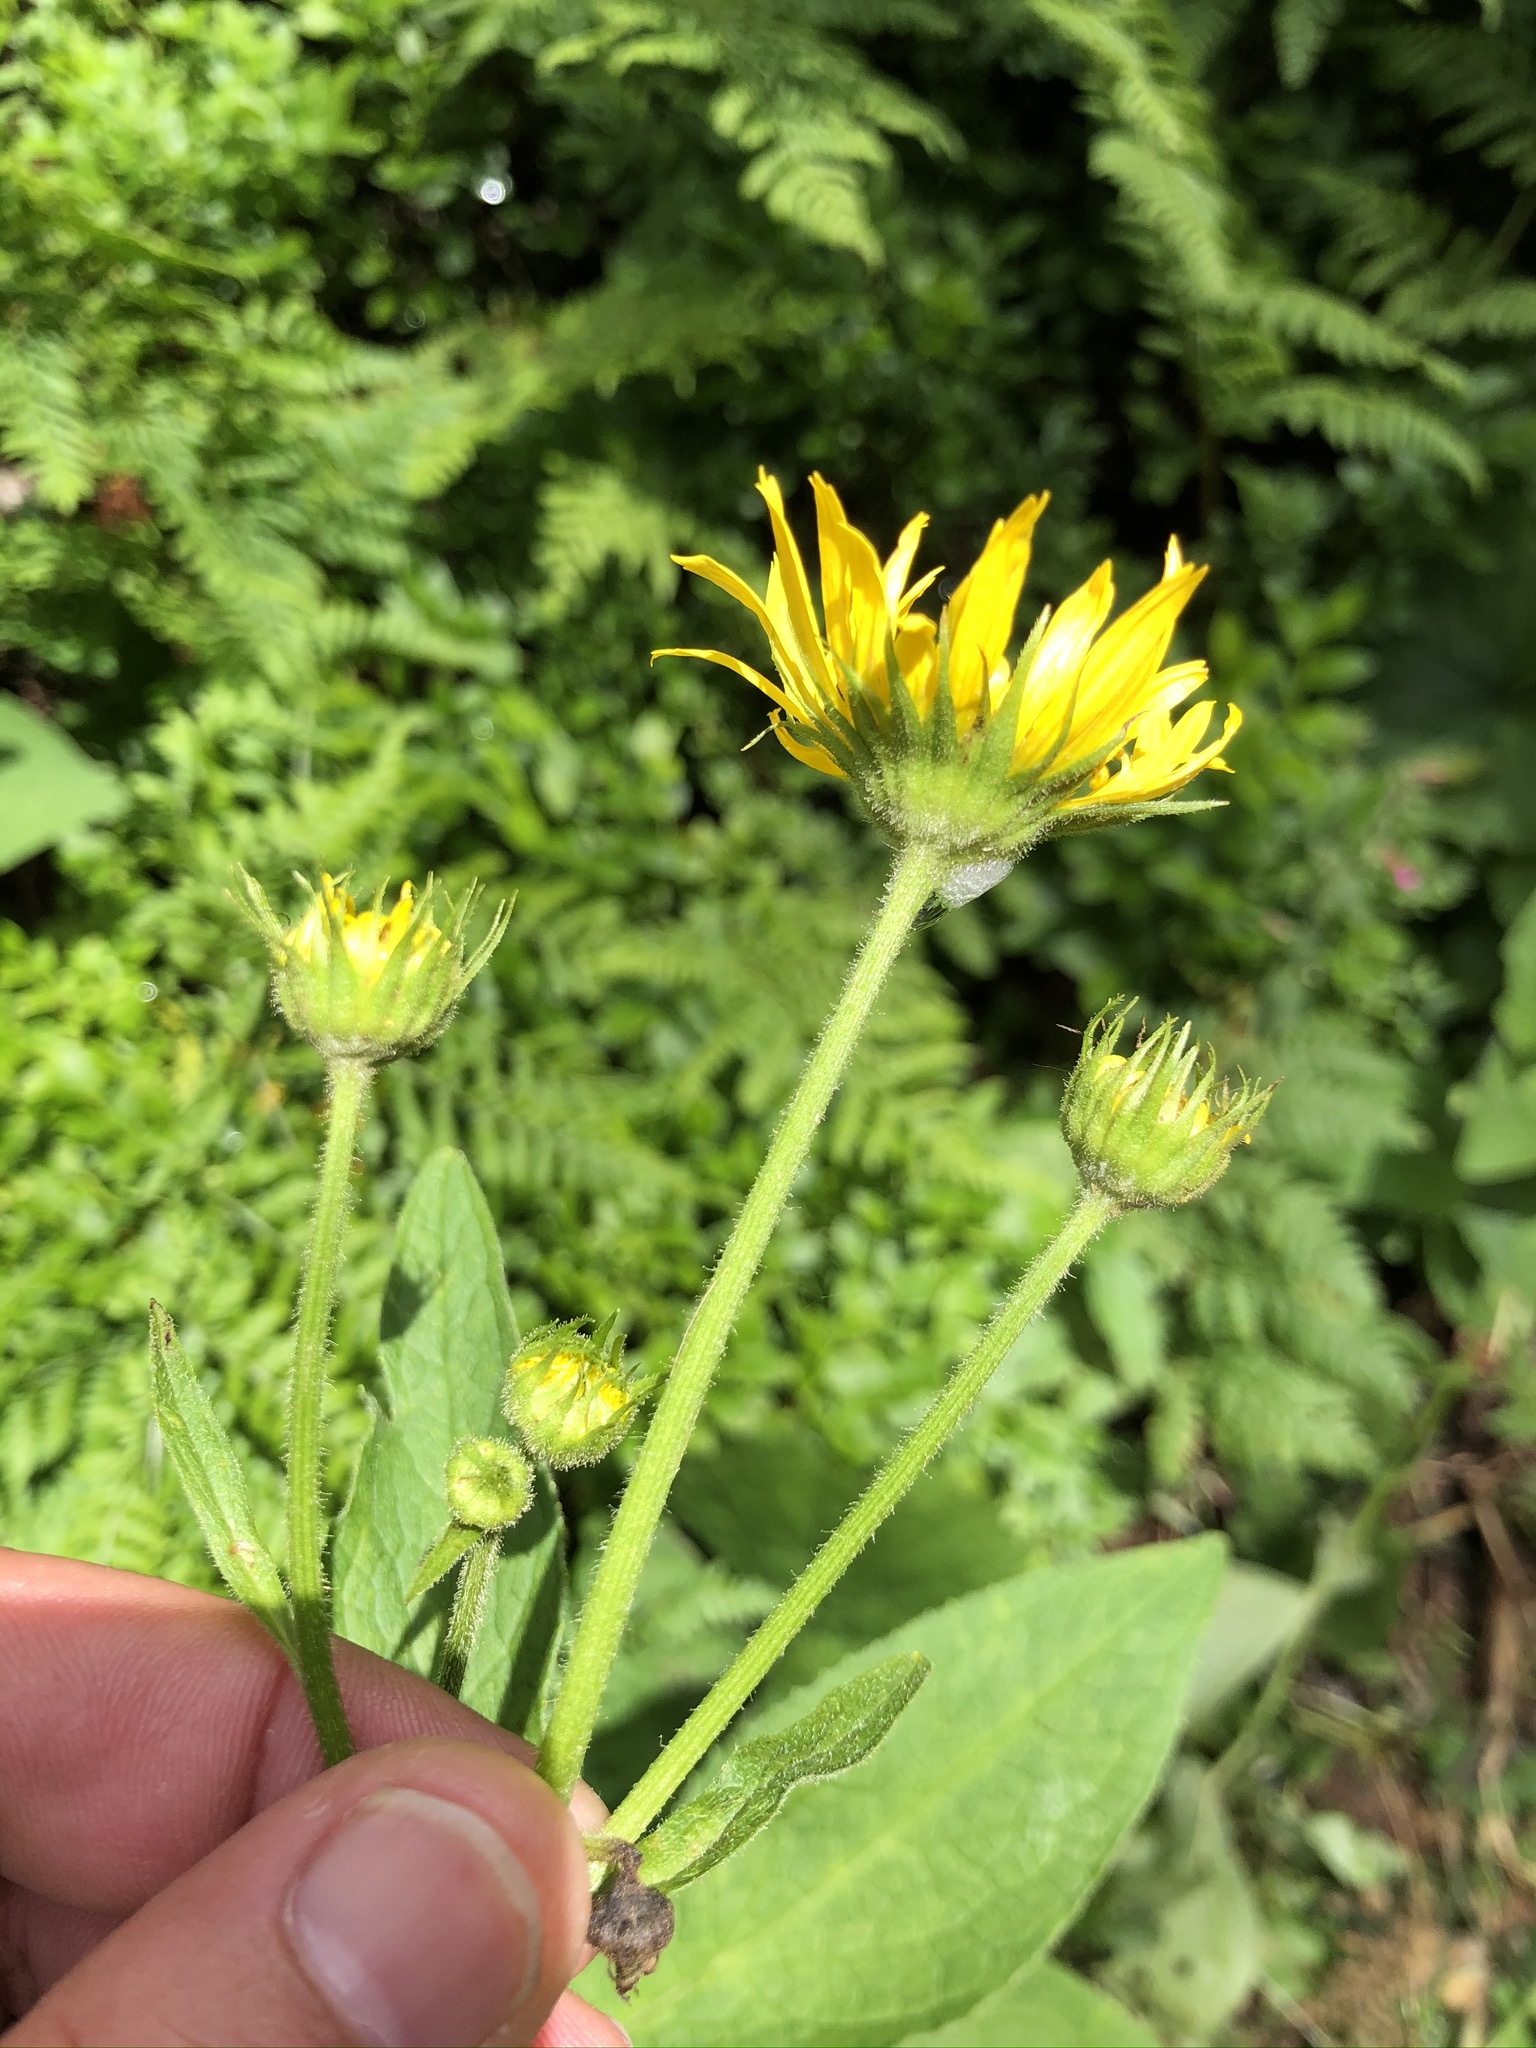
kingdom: Plantae
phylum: Tracheophyta
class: Magnoliopsida
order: Asterales
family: Asteraceae
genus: Doronicum
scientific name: Doronicum austriacum
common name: Austrian leopard's-bane
